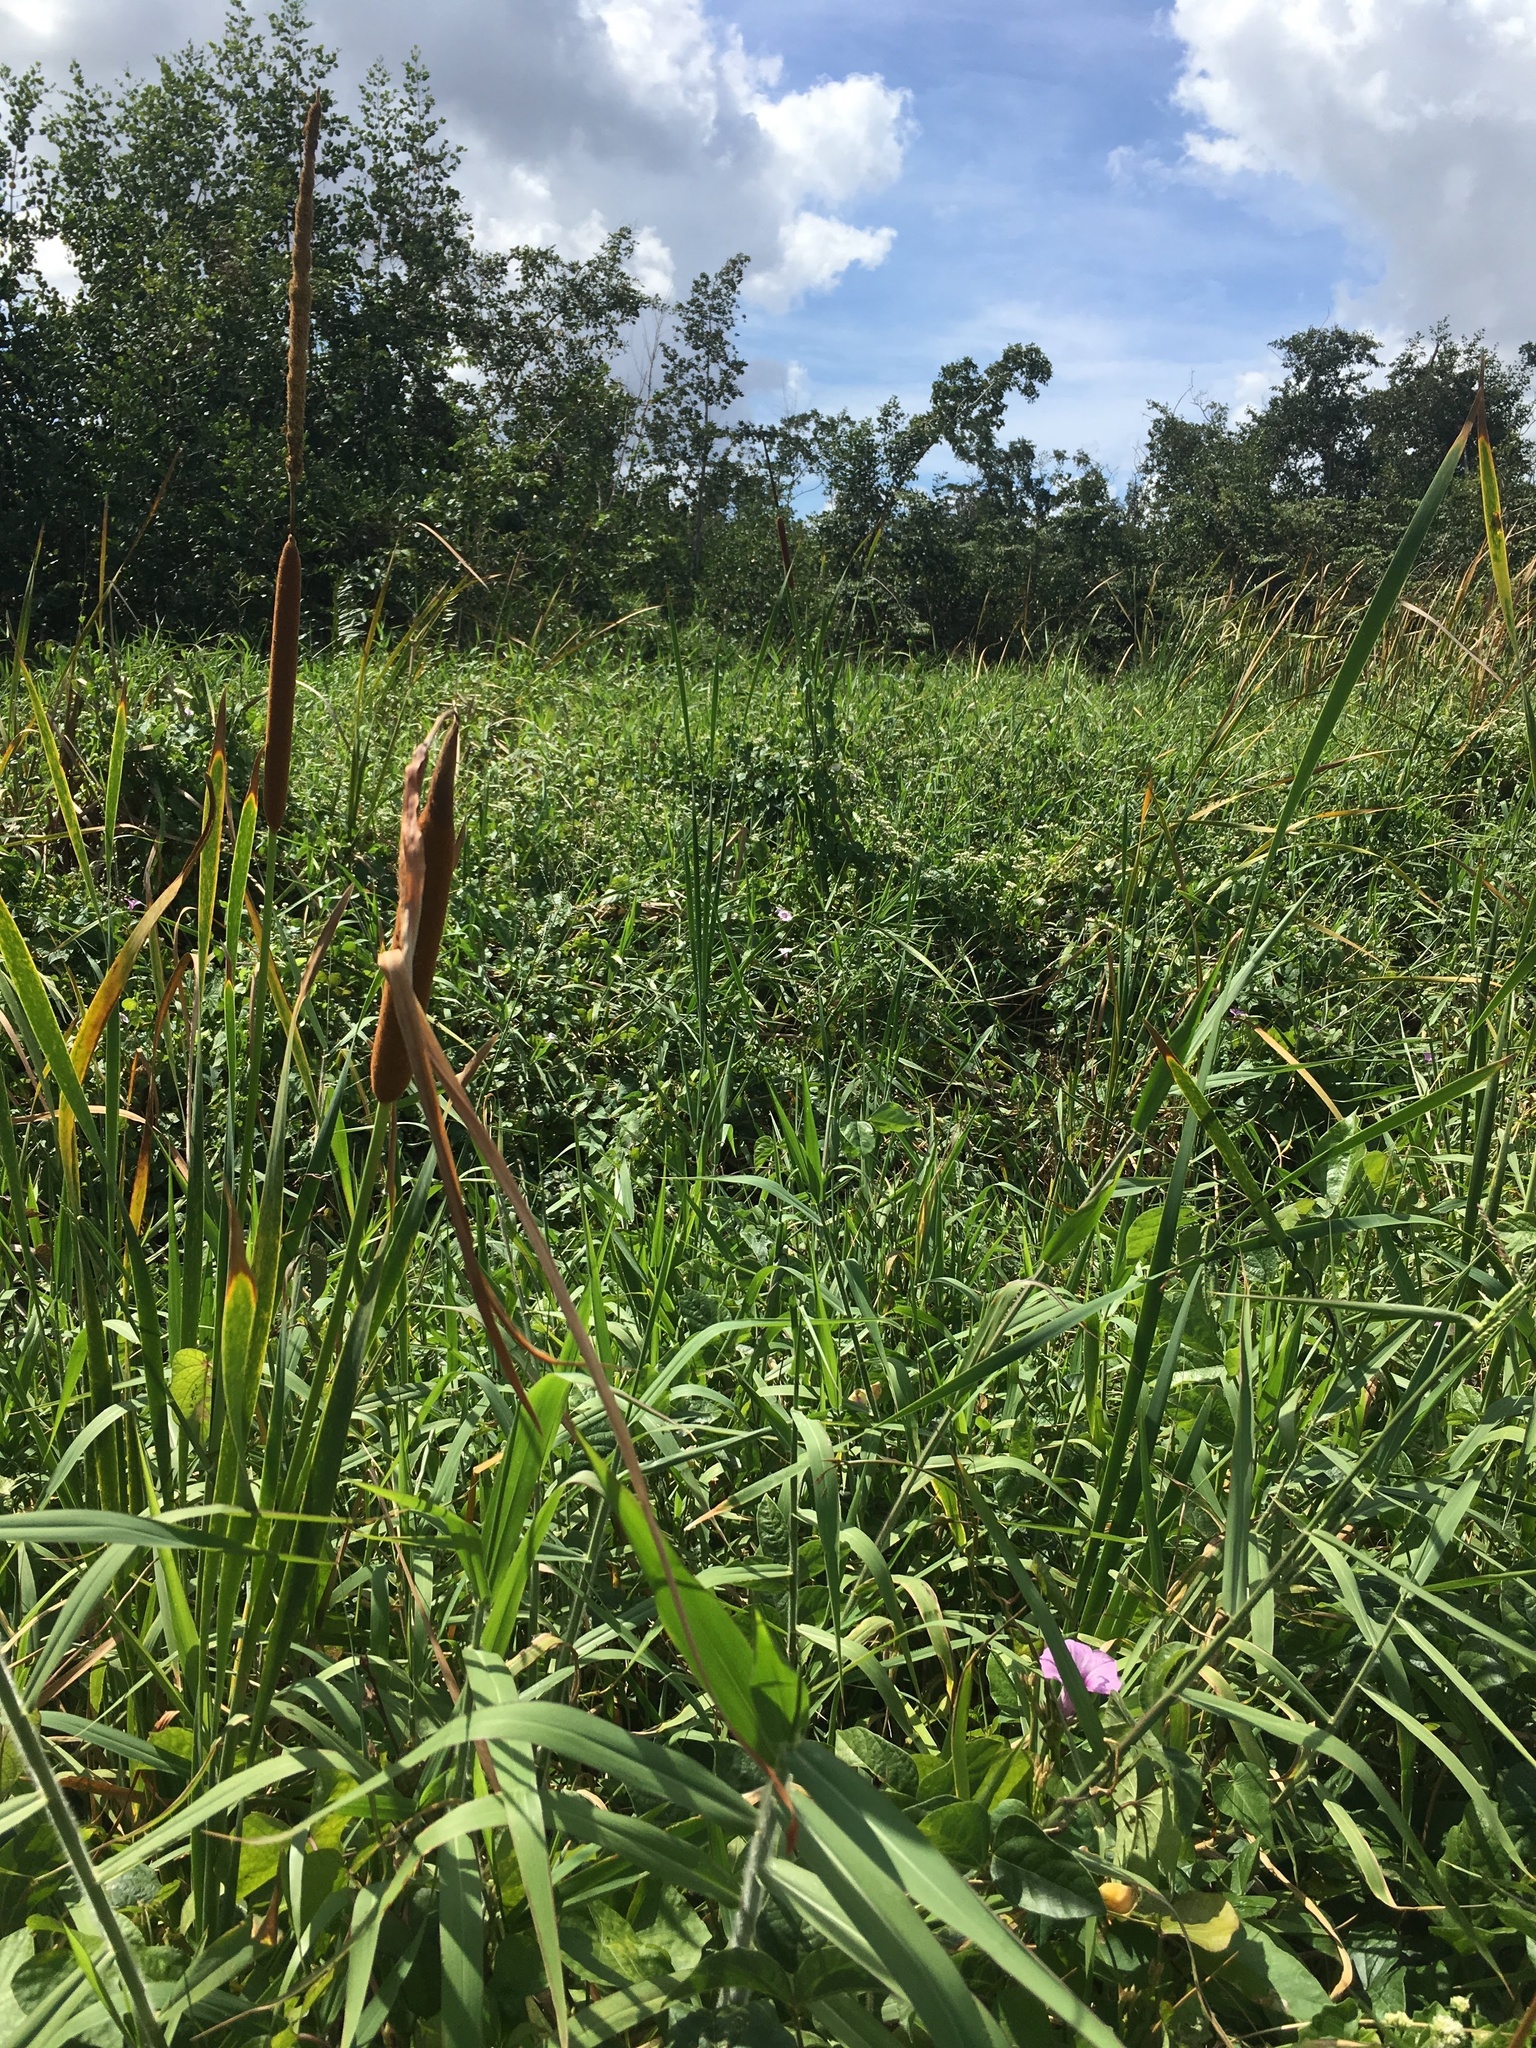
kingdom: Plantae
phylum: Tracheophyta
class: Liliopsida
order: Poales
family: Typhaceae
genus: Typha
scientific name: Typha domingensis
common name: Southern cattail
